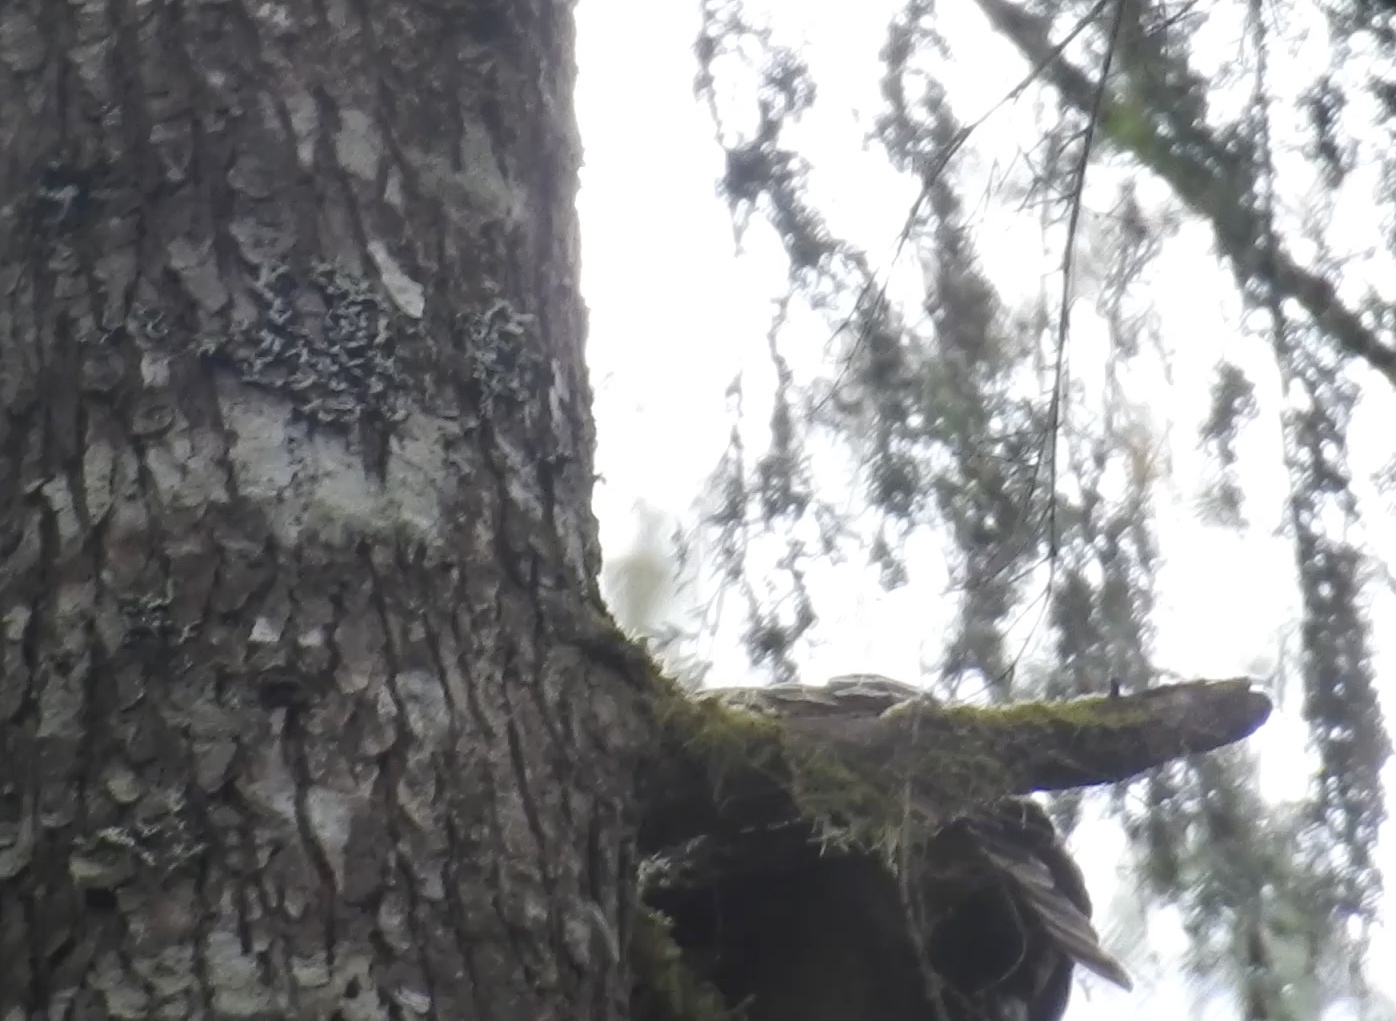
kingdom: Animalia
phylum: Chordata
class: Aves
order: Strigiformes
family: Strigidae
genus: Strix
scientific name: Strix varia
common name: Barred owl
